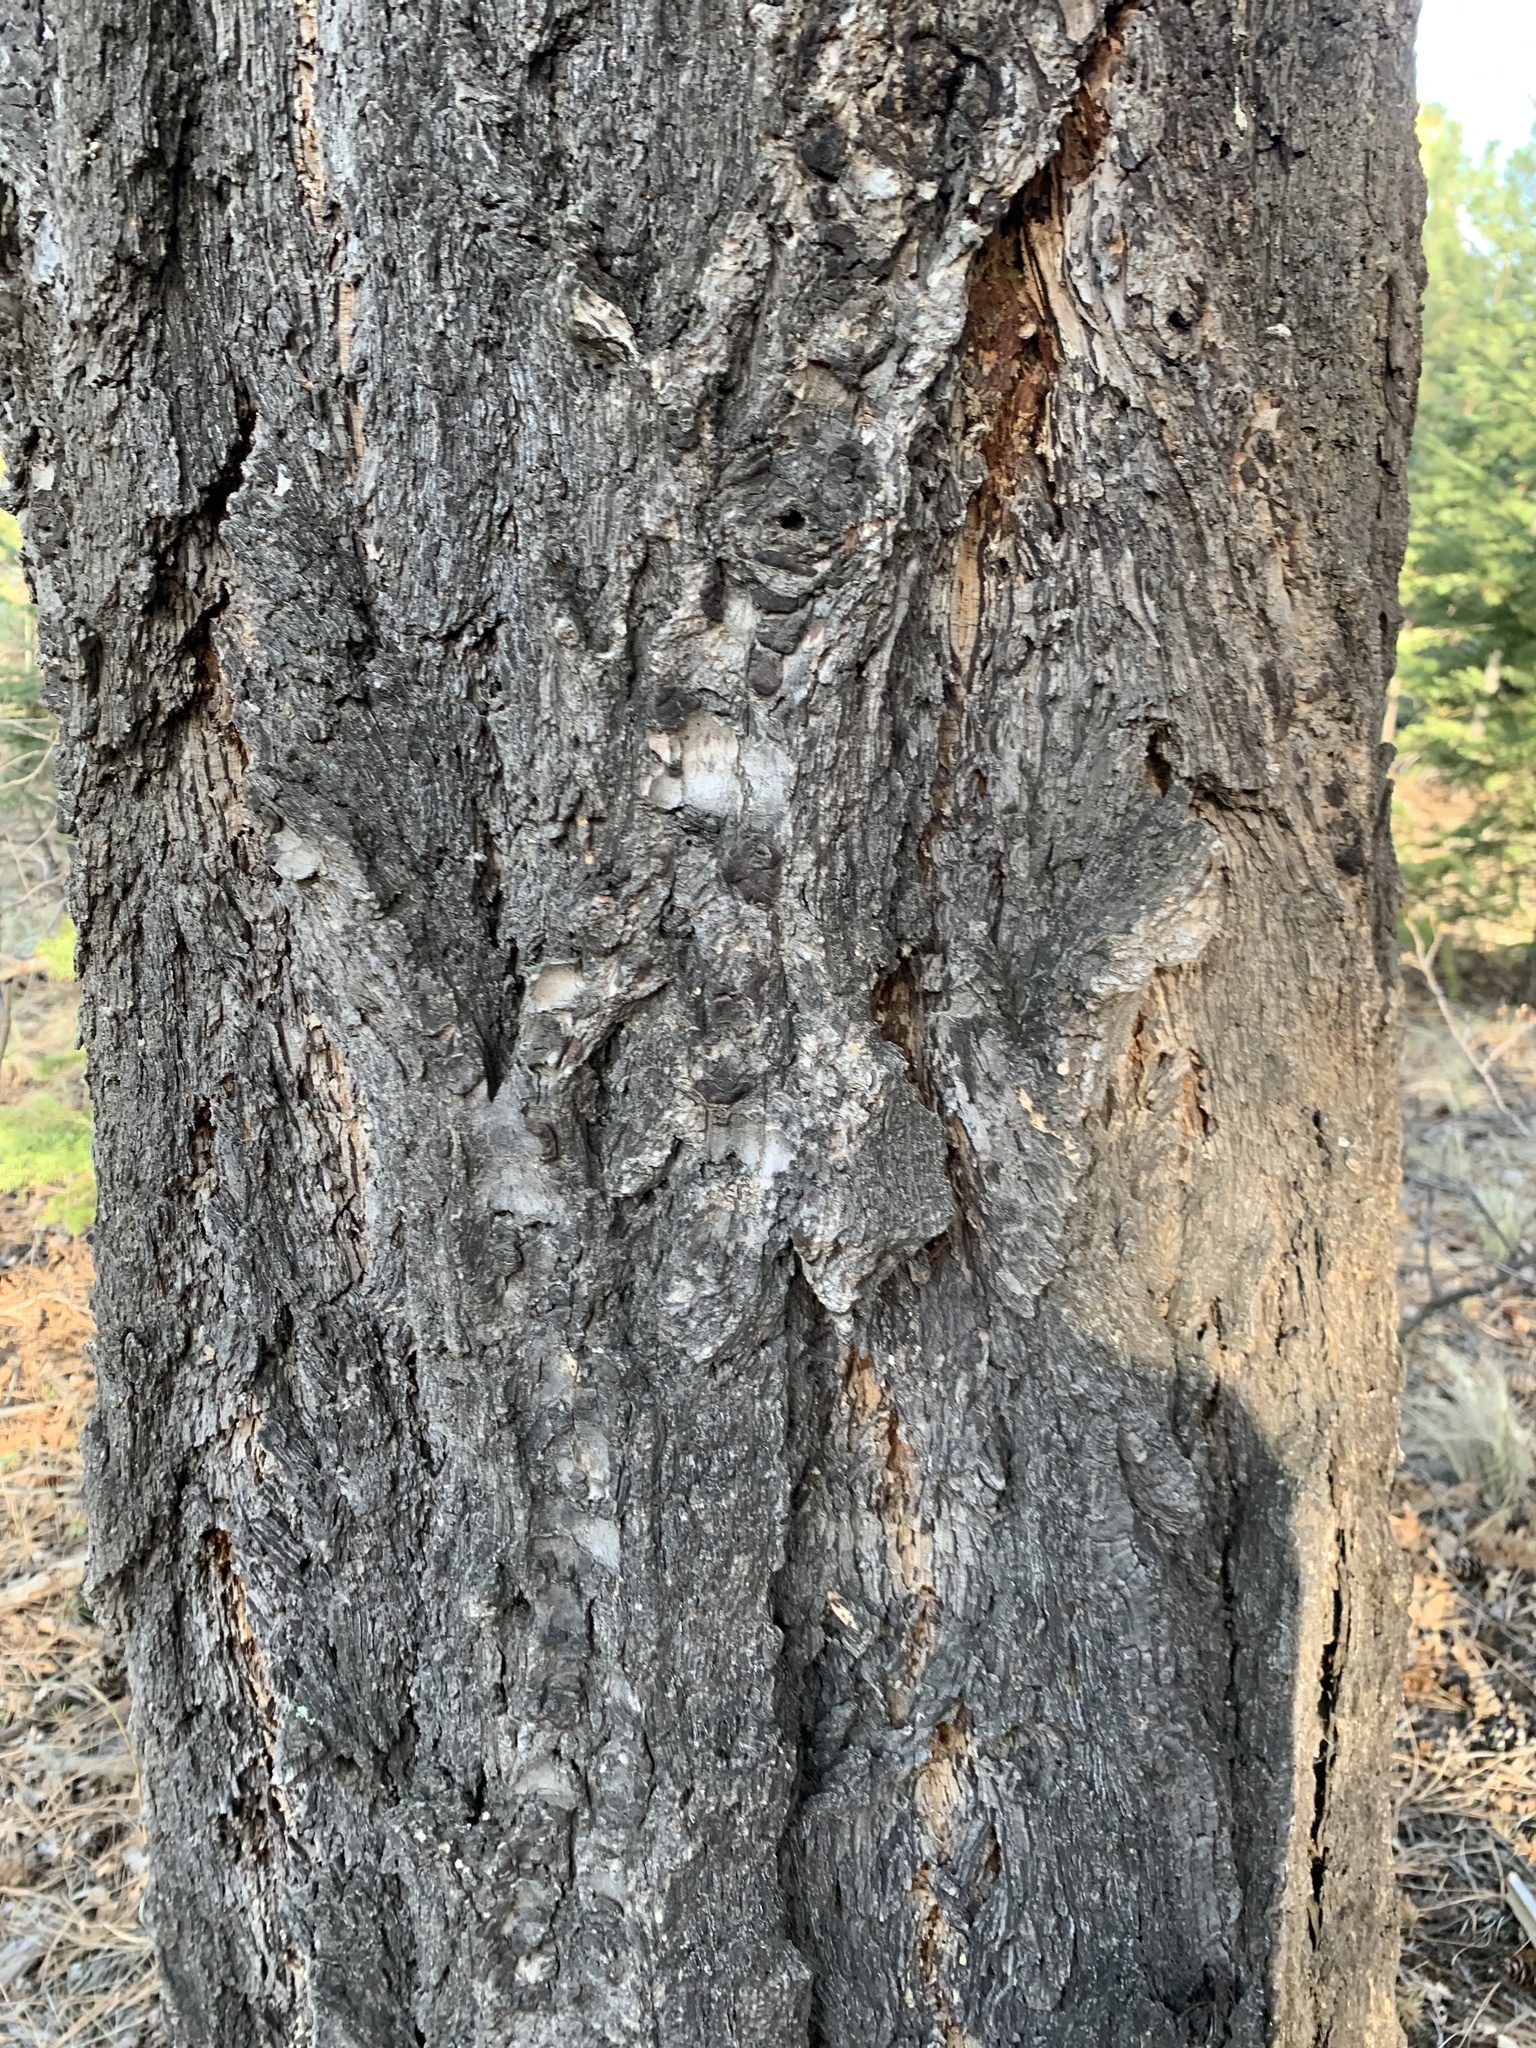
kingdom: Plantae
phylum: Tracheophyta
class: Pinopsida
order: Pinales
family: Pinaceae
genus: Pseudotsuga
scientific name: Pseudotsuga menziesii
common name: Douglas fir
